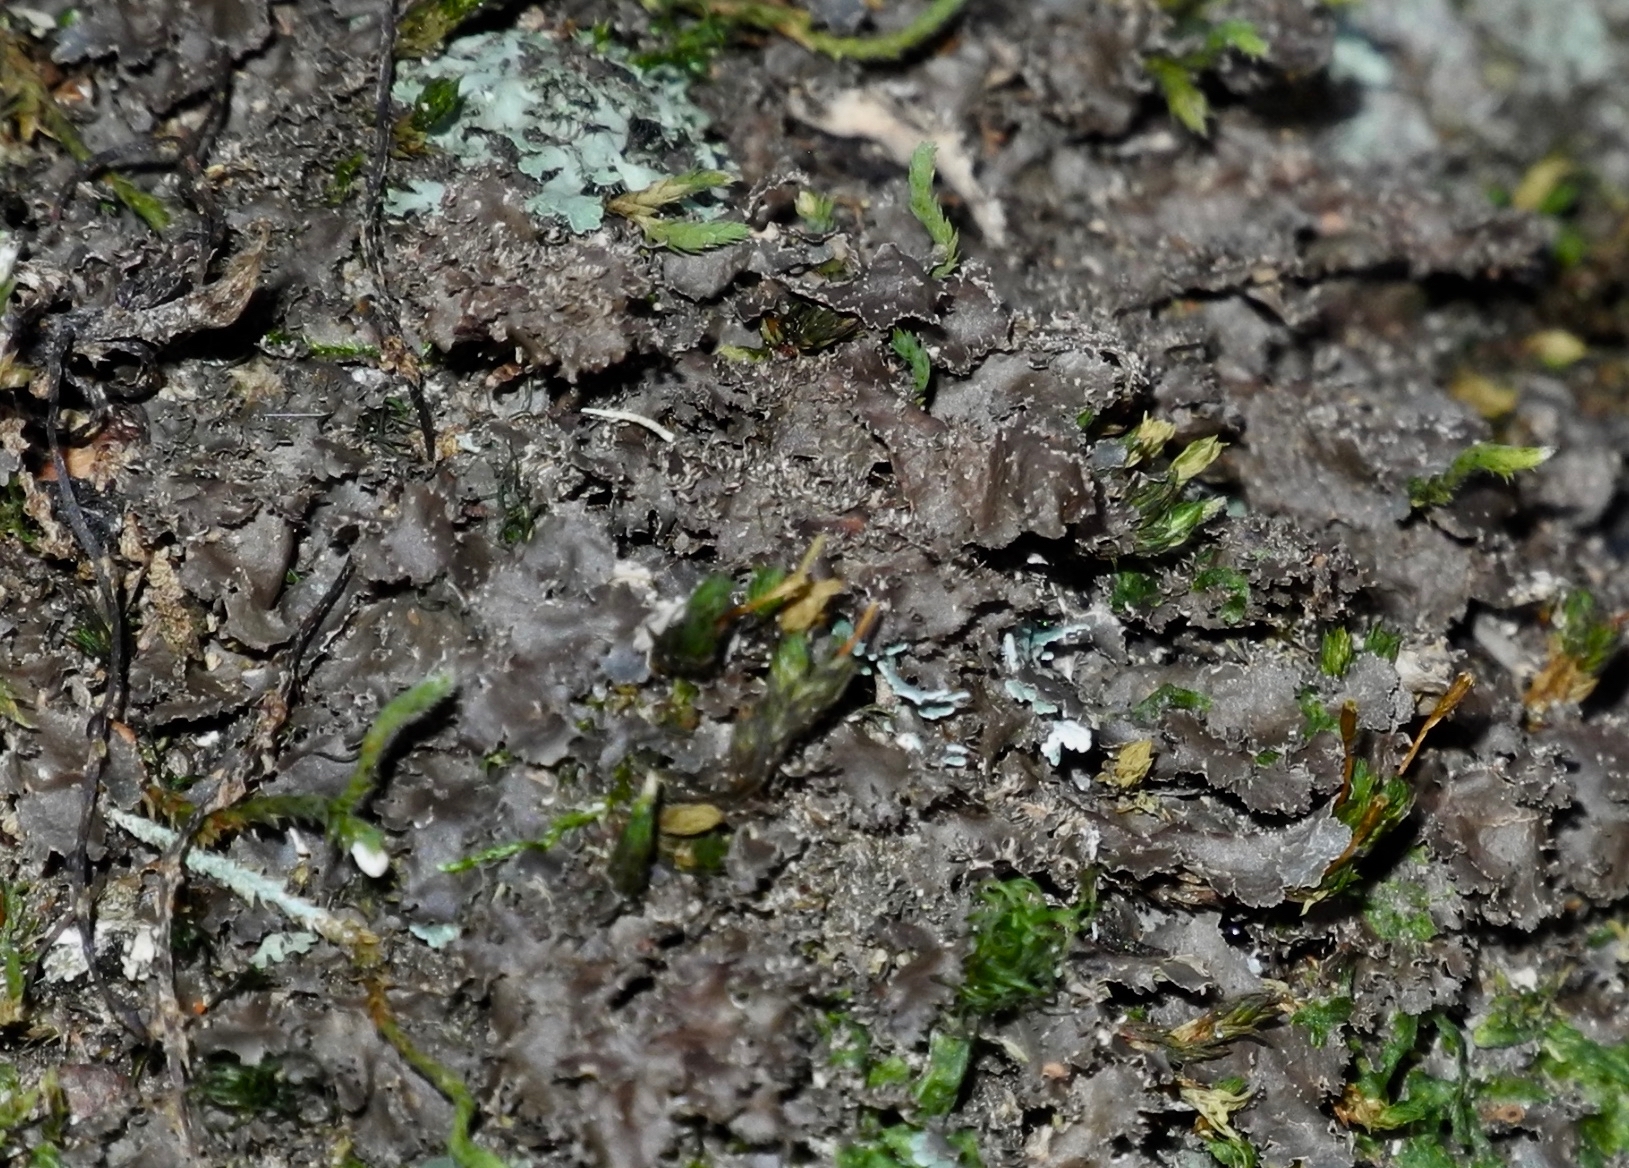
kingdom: Fungi
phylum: Ascomycota
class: Lecanoromycetes
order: Peltigerales
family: Lobariaceae
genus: Sticta
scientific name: Sticta carolinensis
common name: Carolina moon lichen
